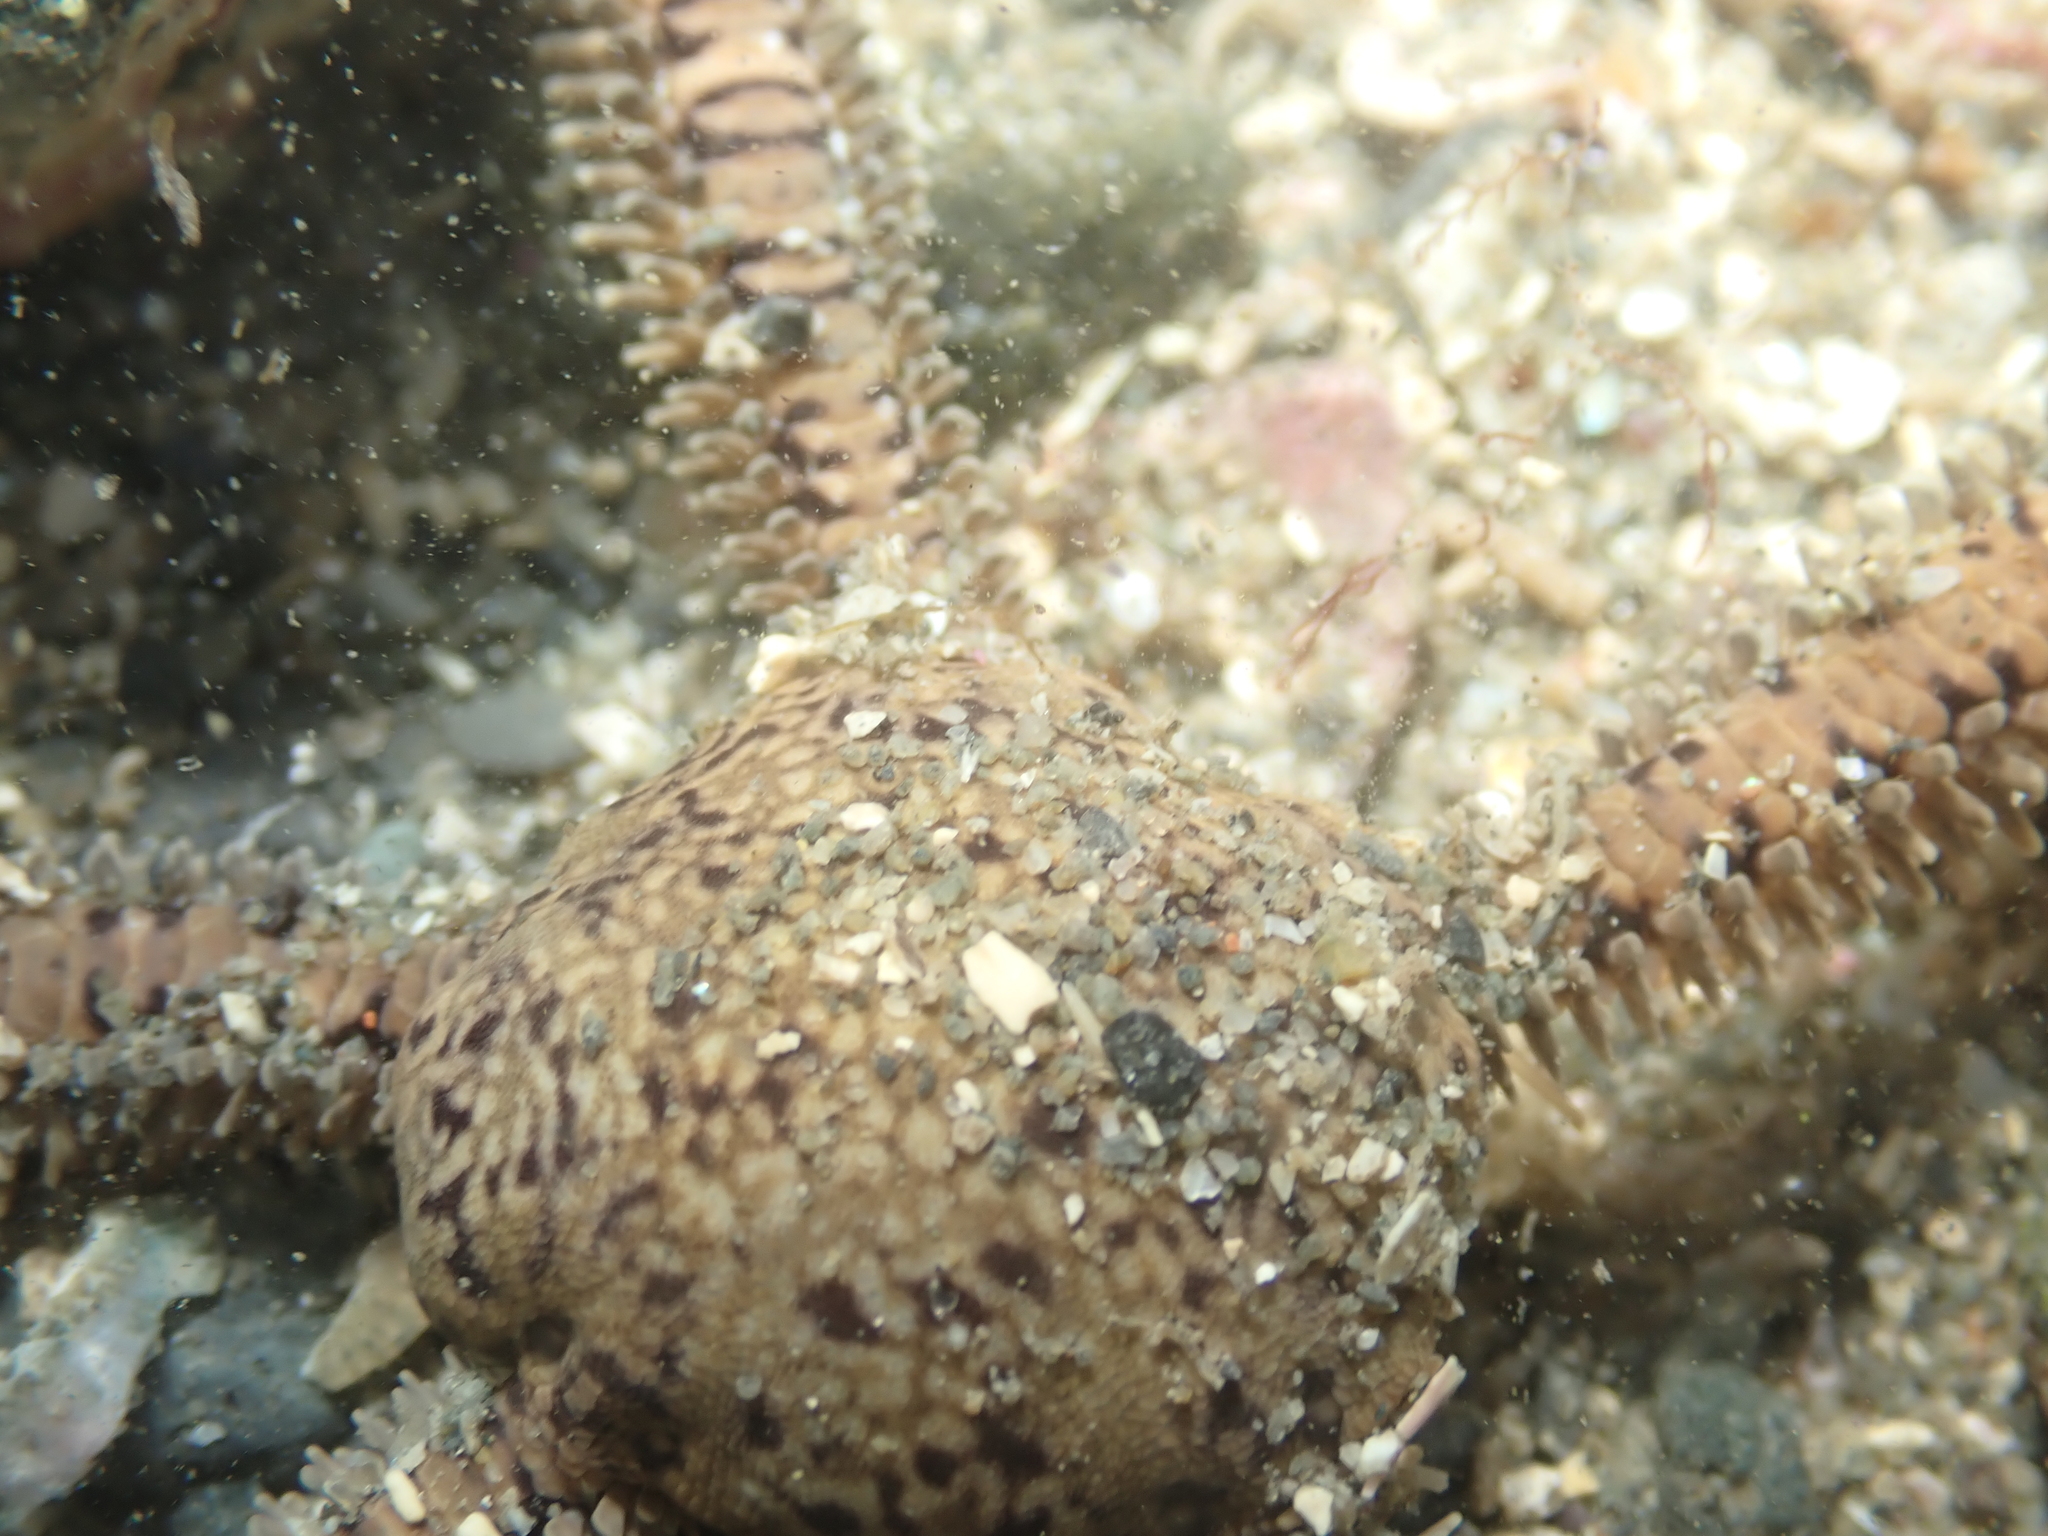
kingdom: Animalia
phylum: Echinodermata
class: Ophiuroidea
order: Amphilepidida
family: Ophionereididae
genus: Ophionereis
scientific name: Ophionereis fasciata
